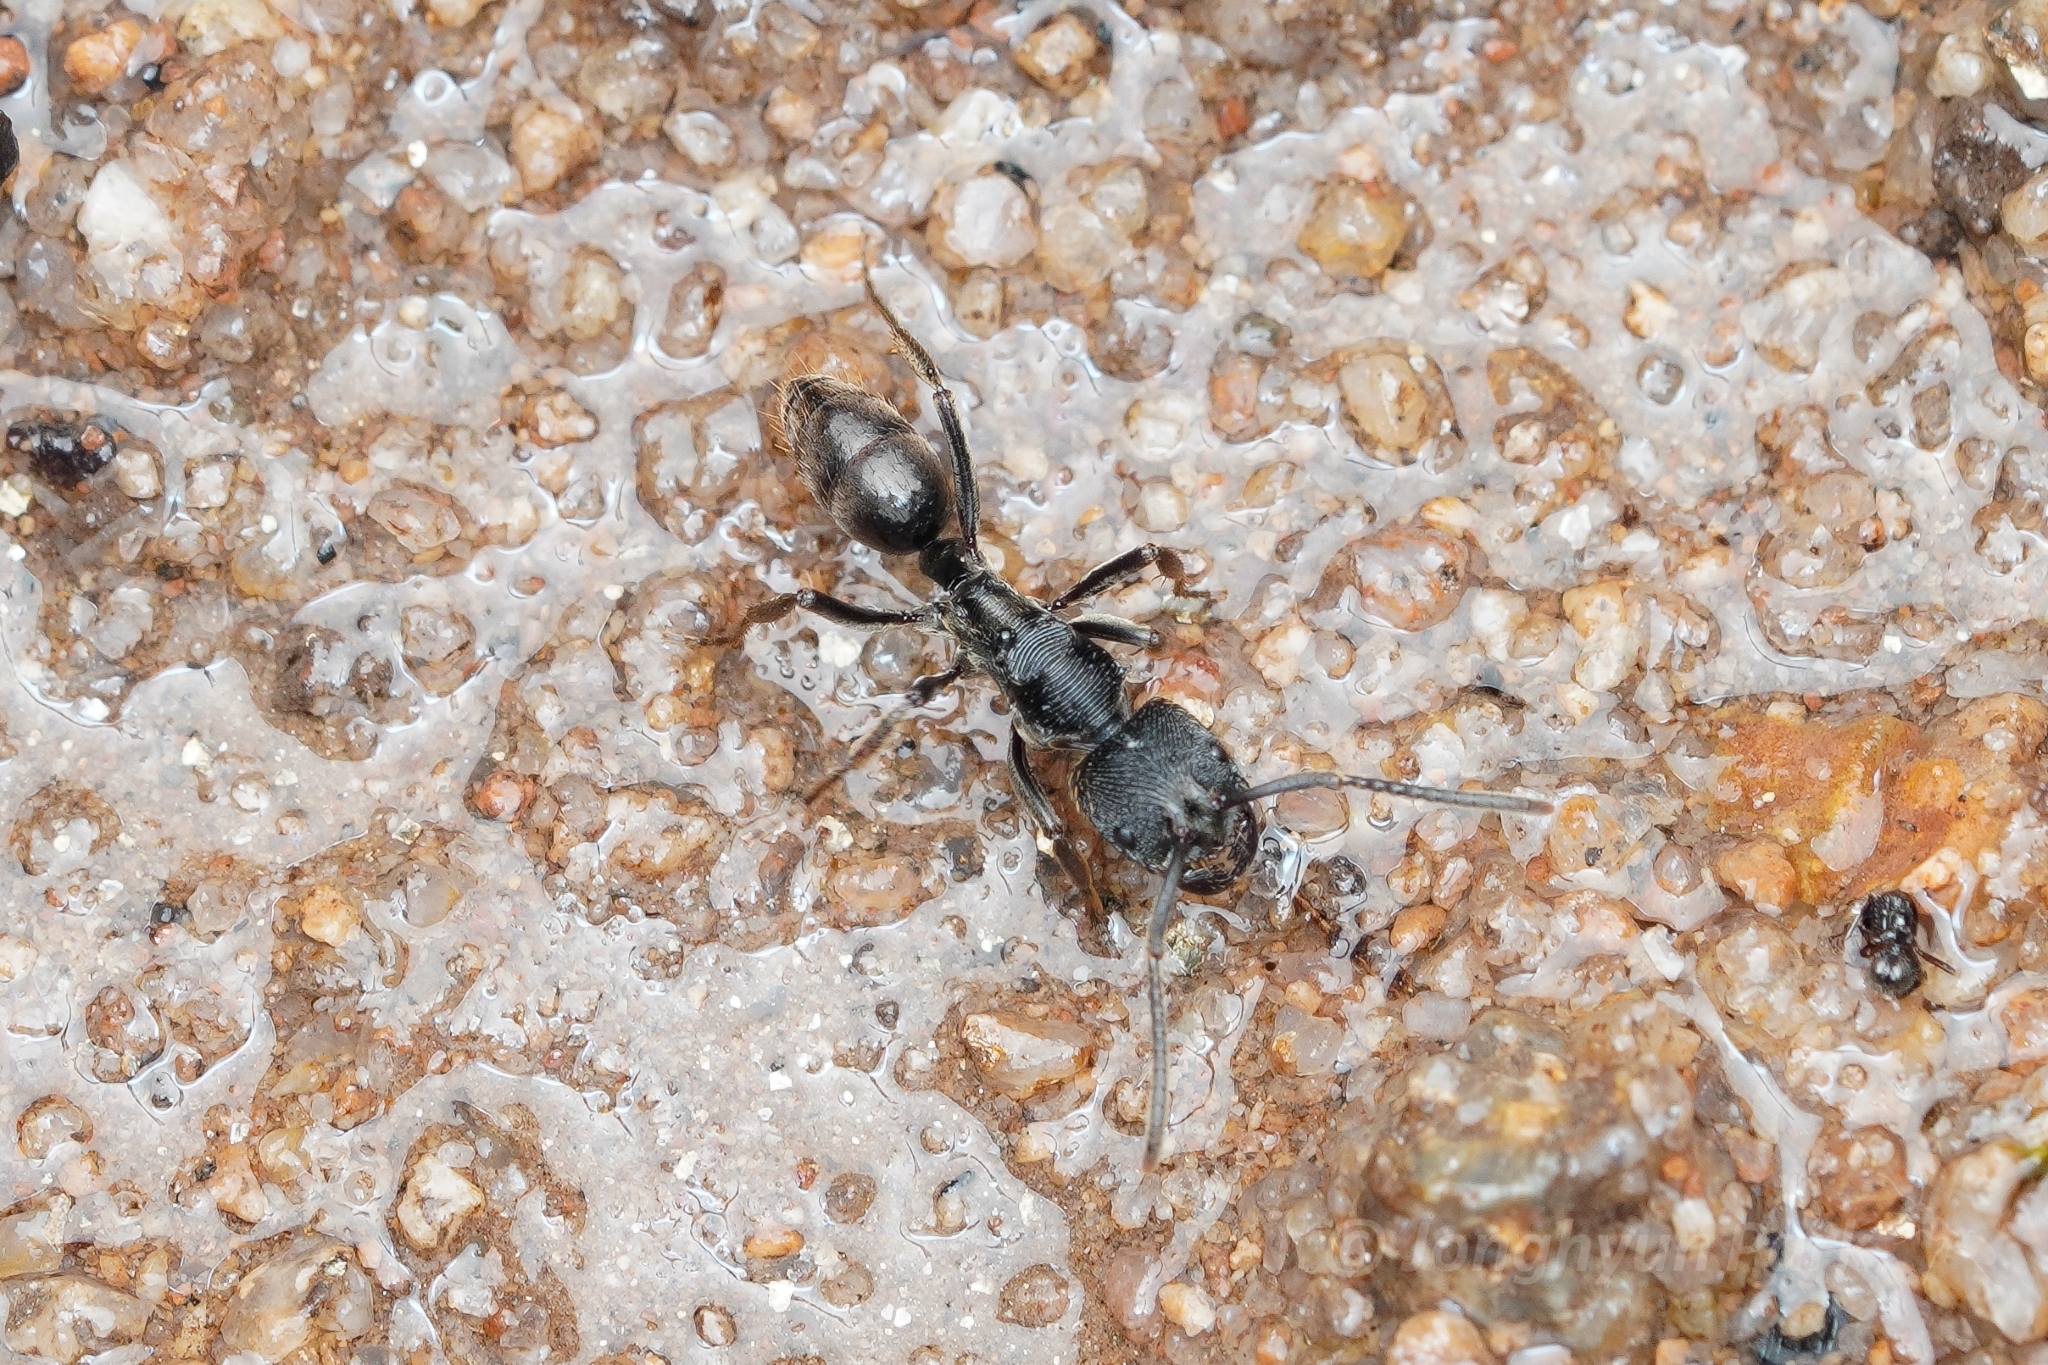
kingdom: Animalia
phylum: Arthropoda
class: Insecta
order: Hymenoptera
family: Formicidae
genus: Odontoponera
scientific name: Odontoponera denticulata
